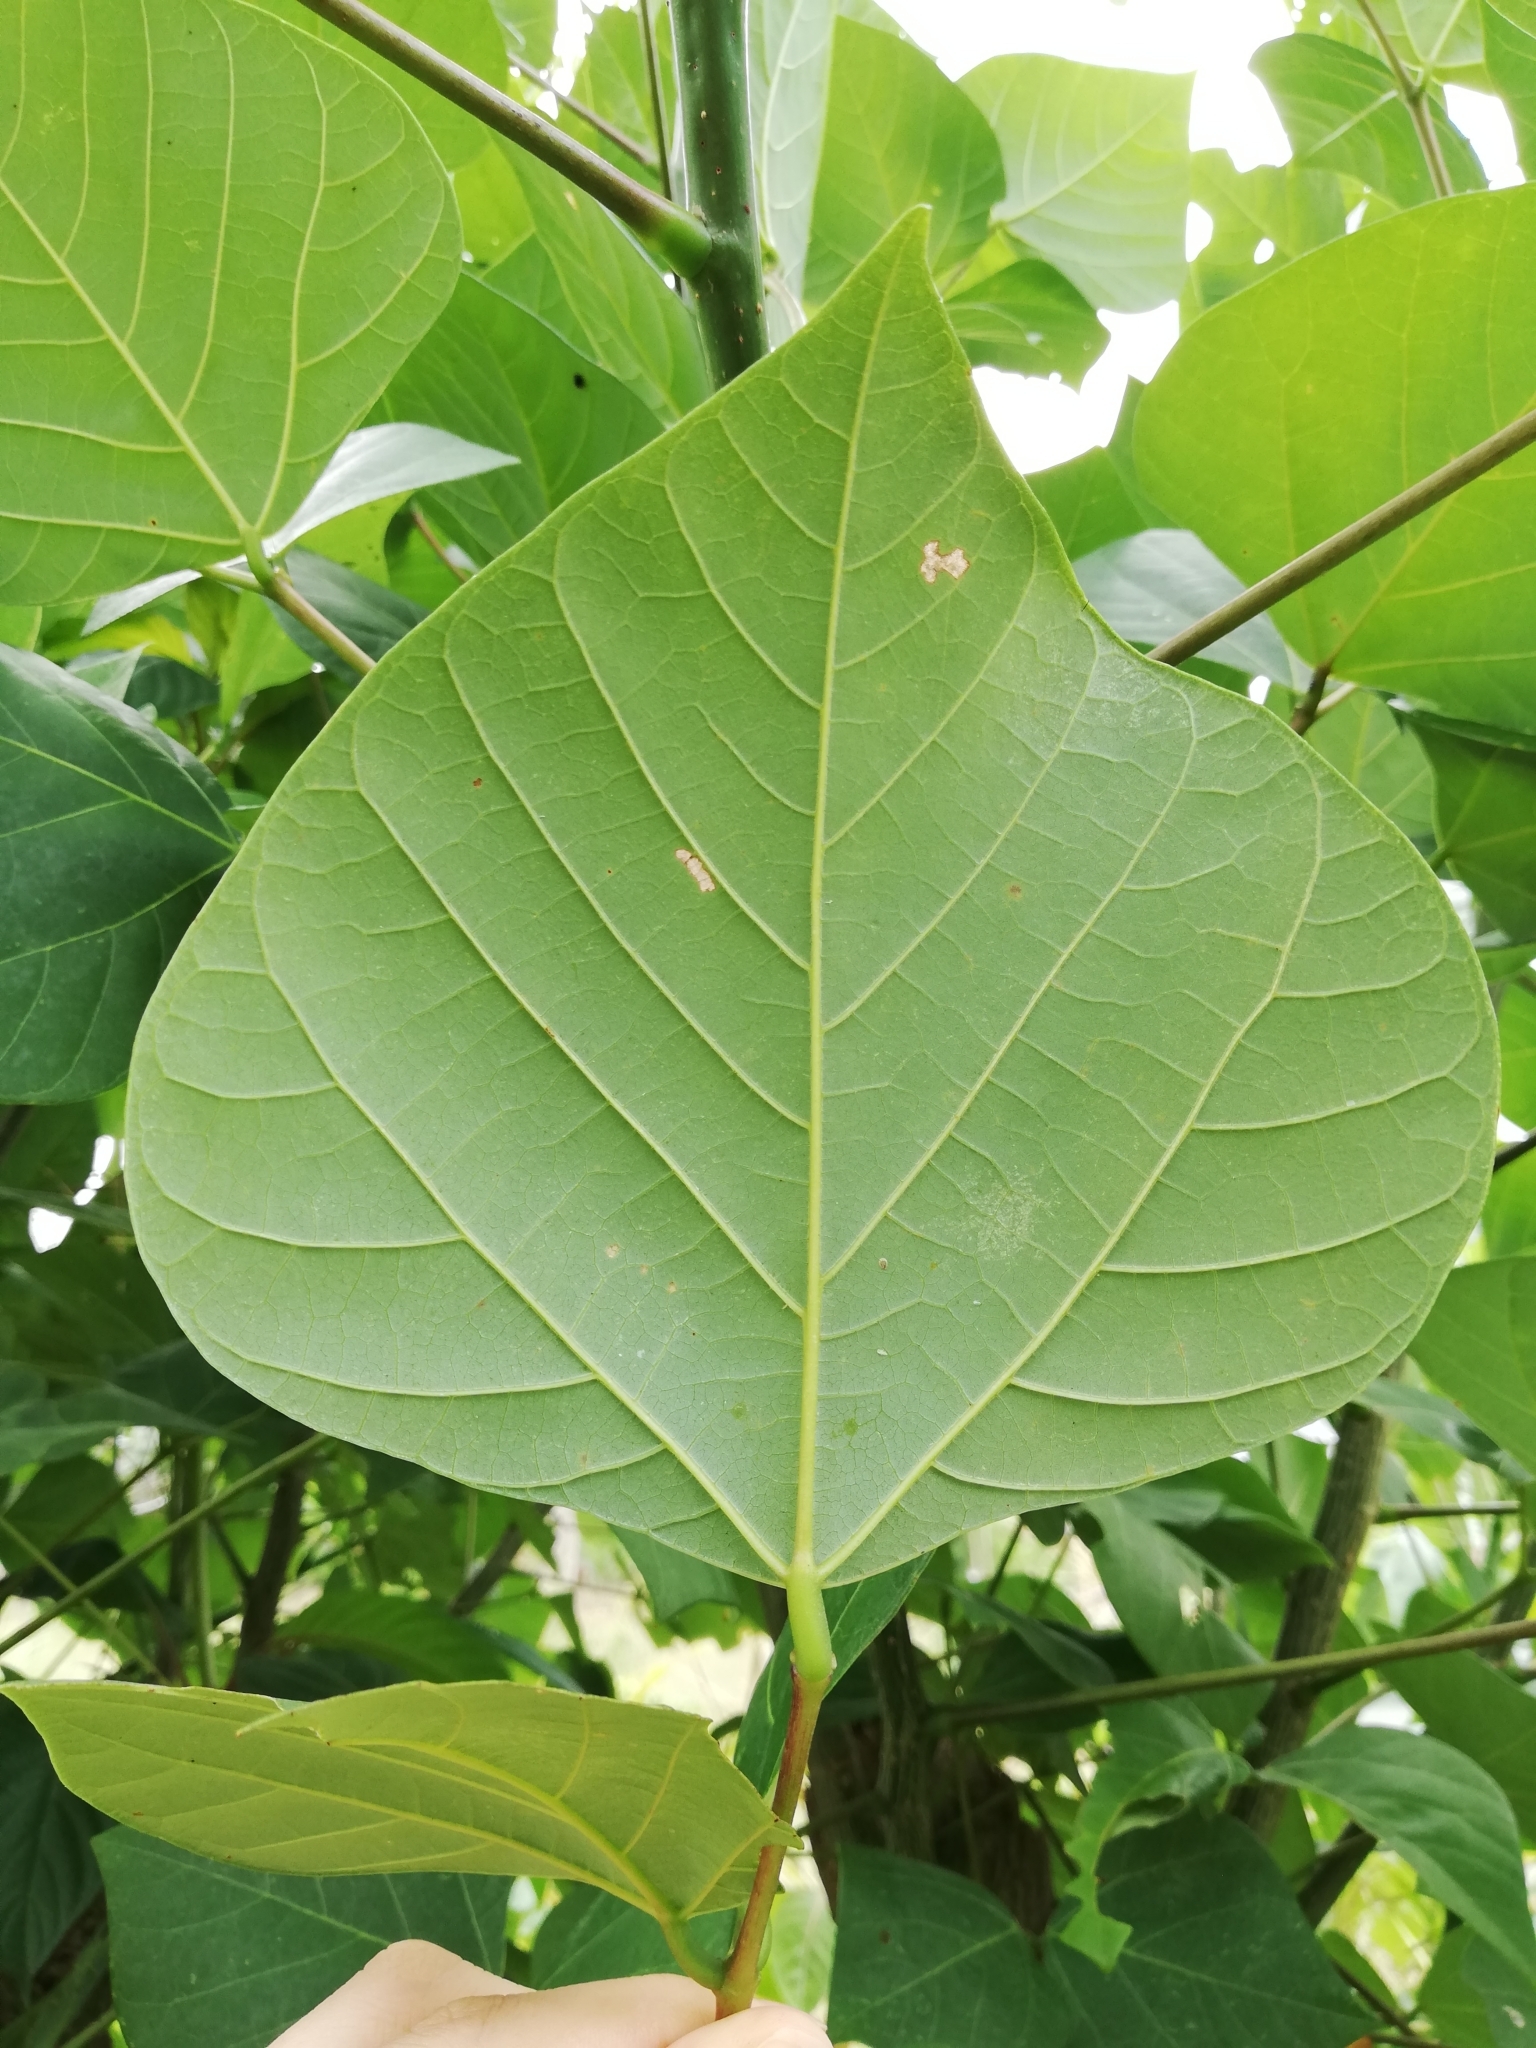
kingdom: Plantae
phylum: Tracheophyta
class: Magnoliopsida
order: Fabales
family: Fabaceae
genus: Erythrina
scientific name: Erythrina americana
